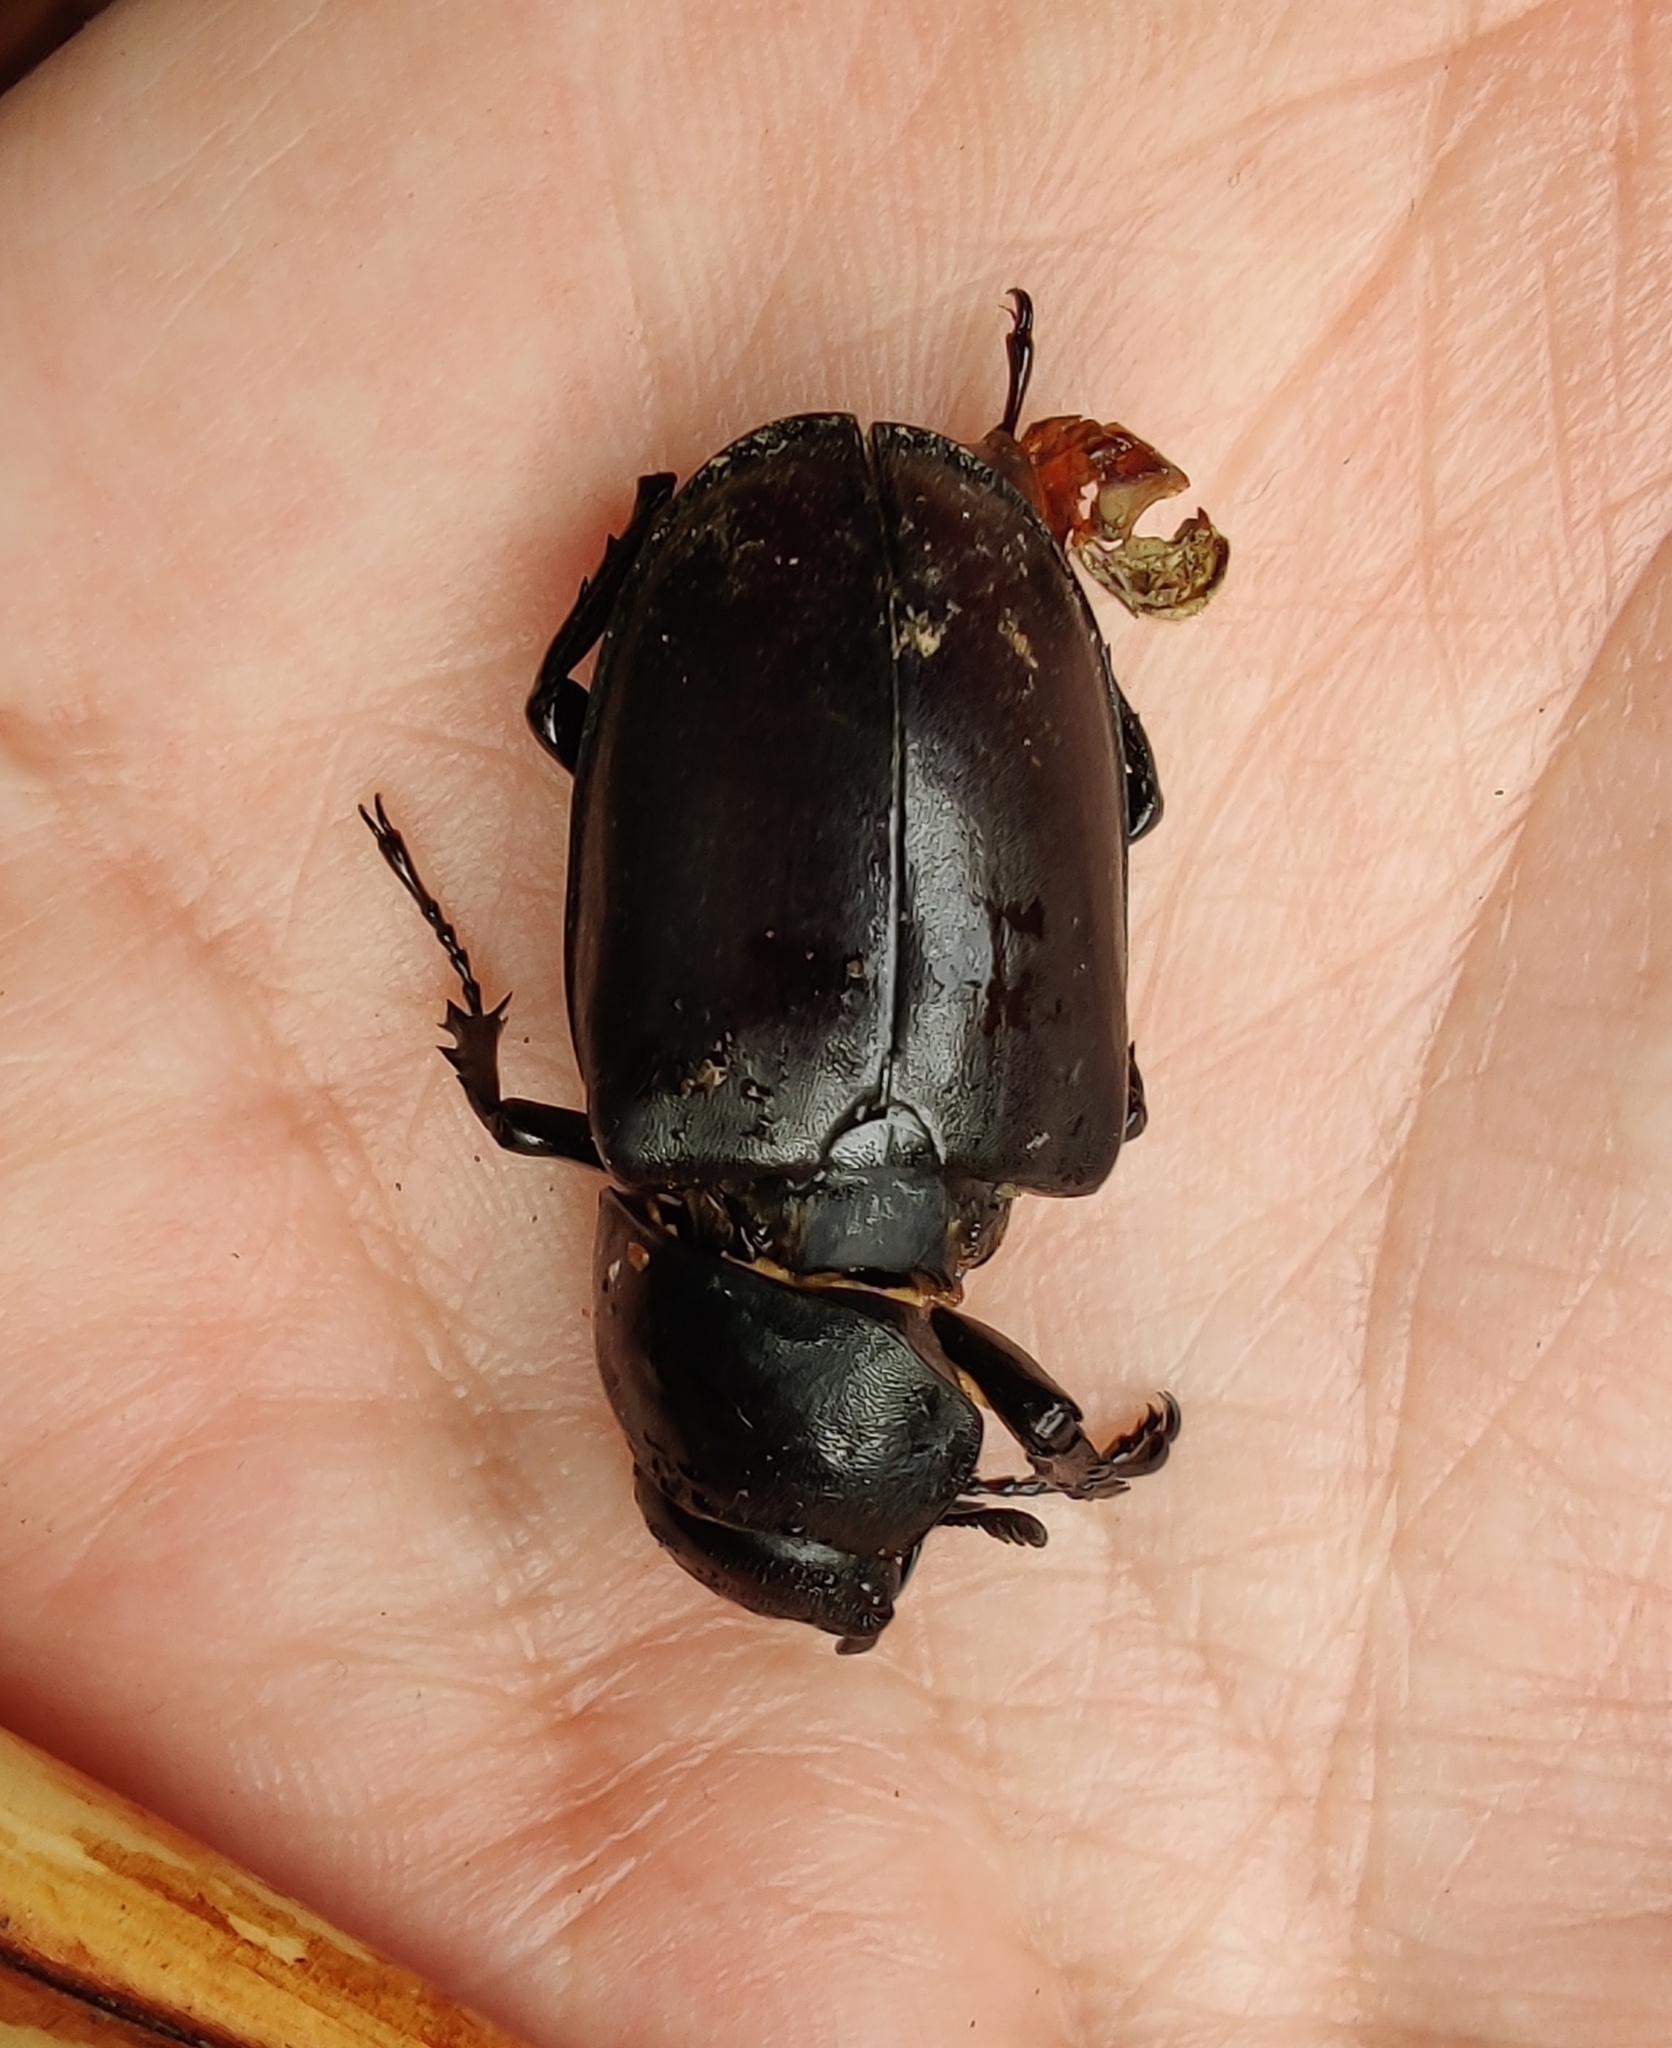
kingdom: Animalia
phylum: Arthropoda
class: Insecta
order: Coleoptera
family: Lucanidae
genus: Lucanus
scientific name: Lucanus cervus
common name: Stag beetle
